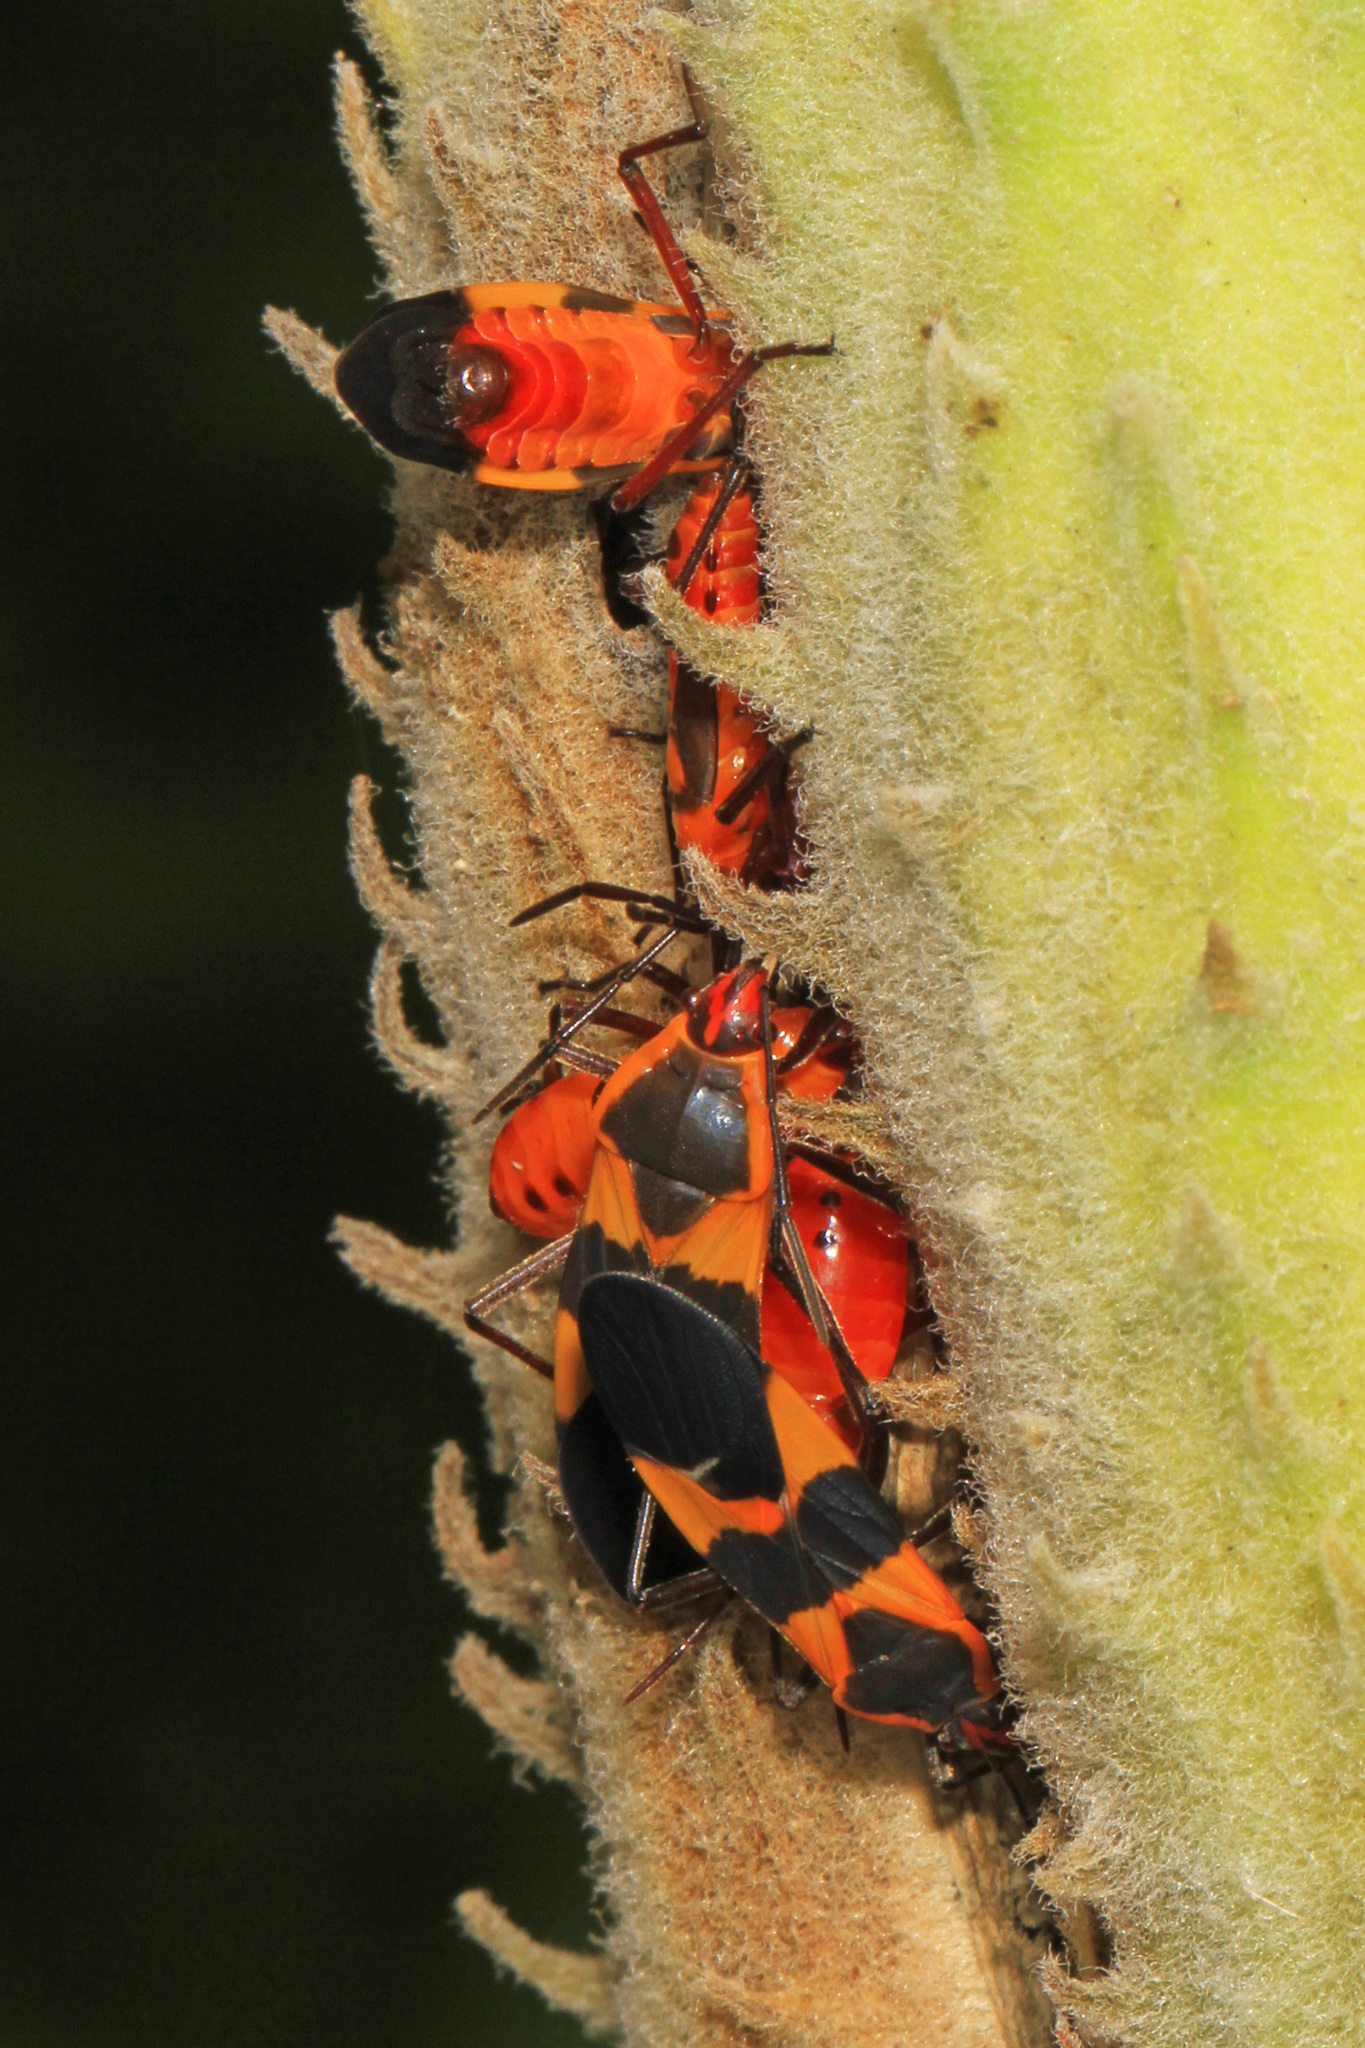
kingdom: Animalia
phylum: Arthropoda
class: Insecta
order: Hemiptera
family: Lygaeidae
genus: Oncopeltus
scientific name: Oncopeltus fasciatus
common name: Large milkweed bug
